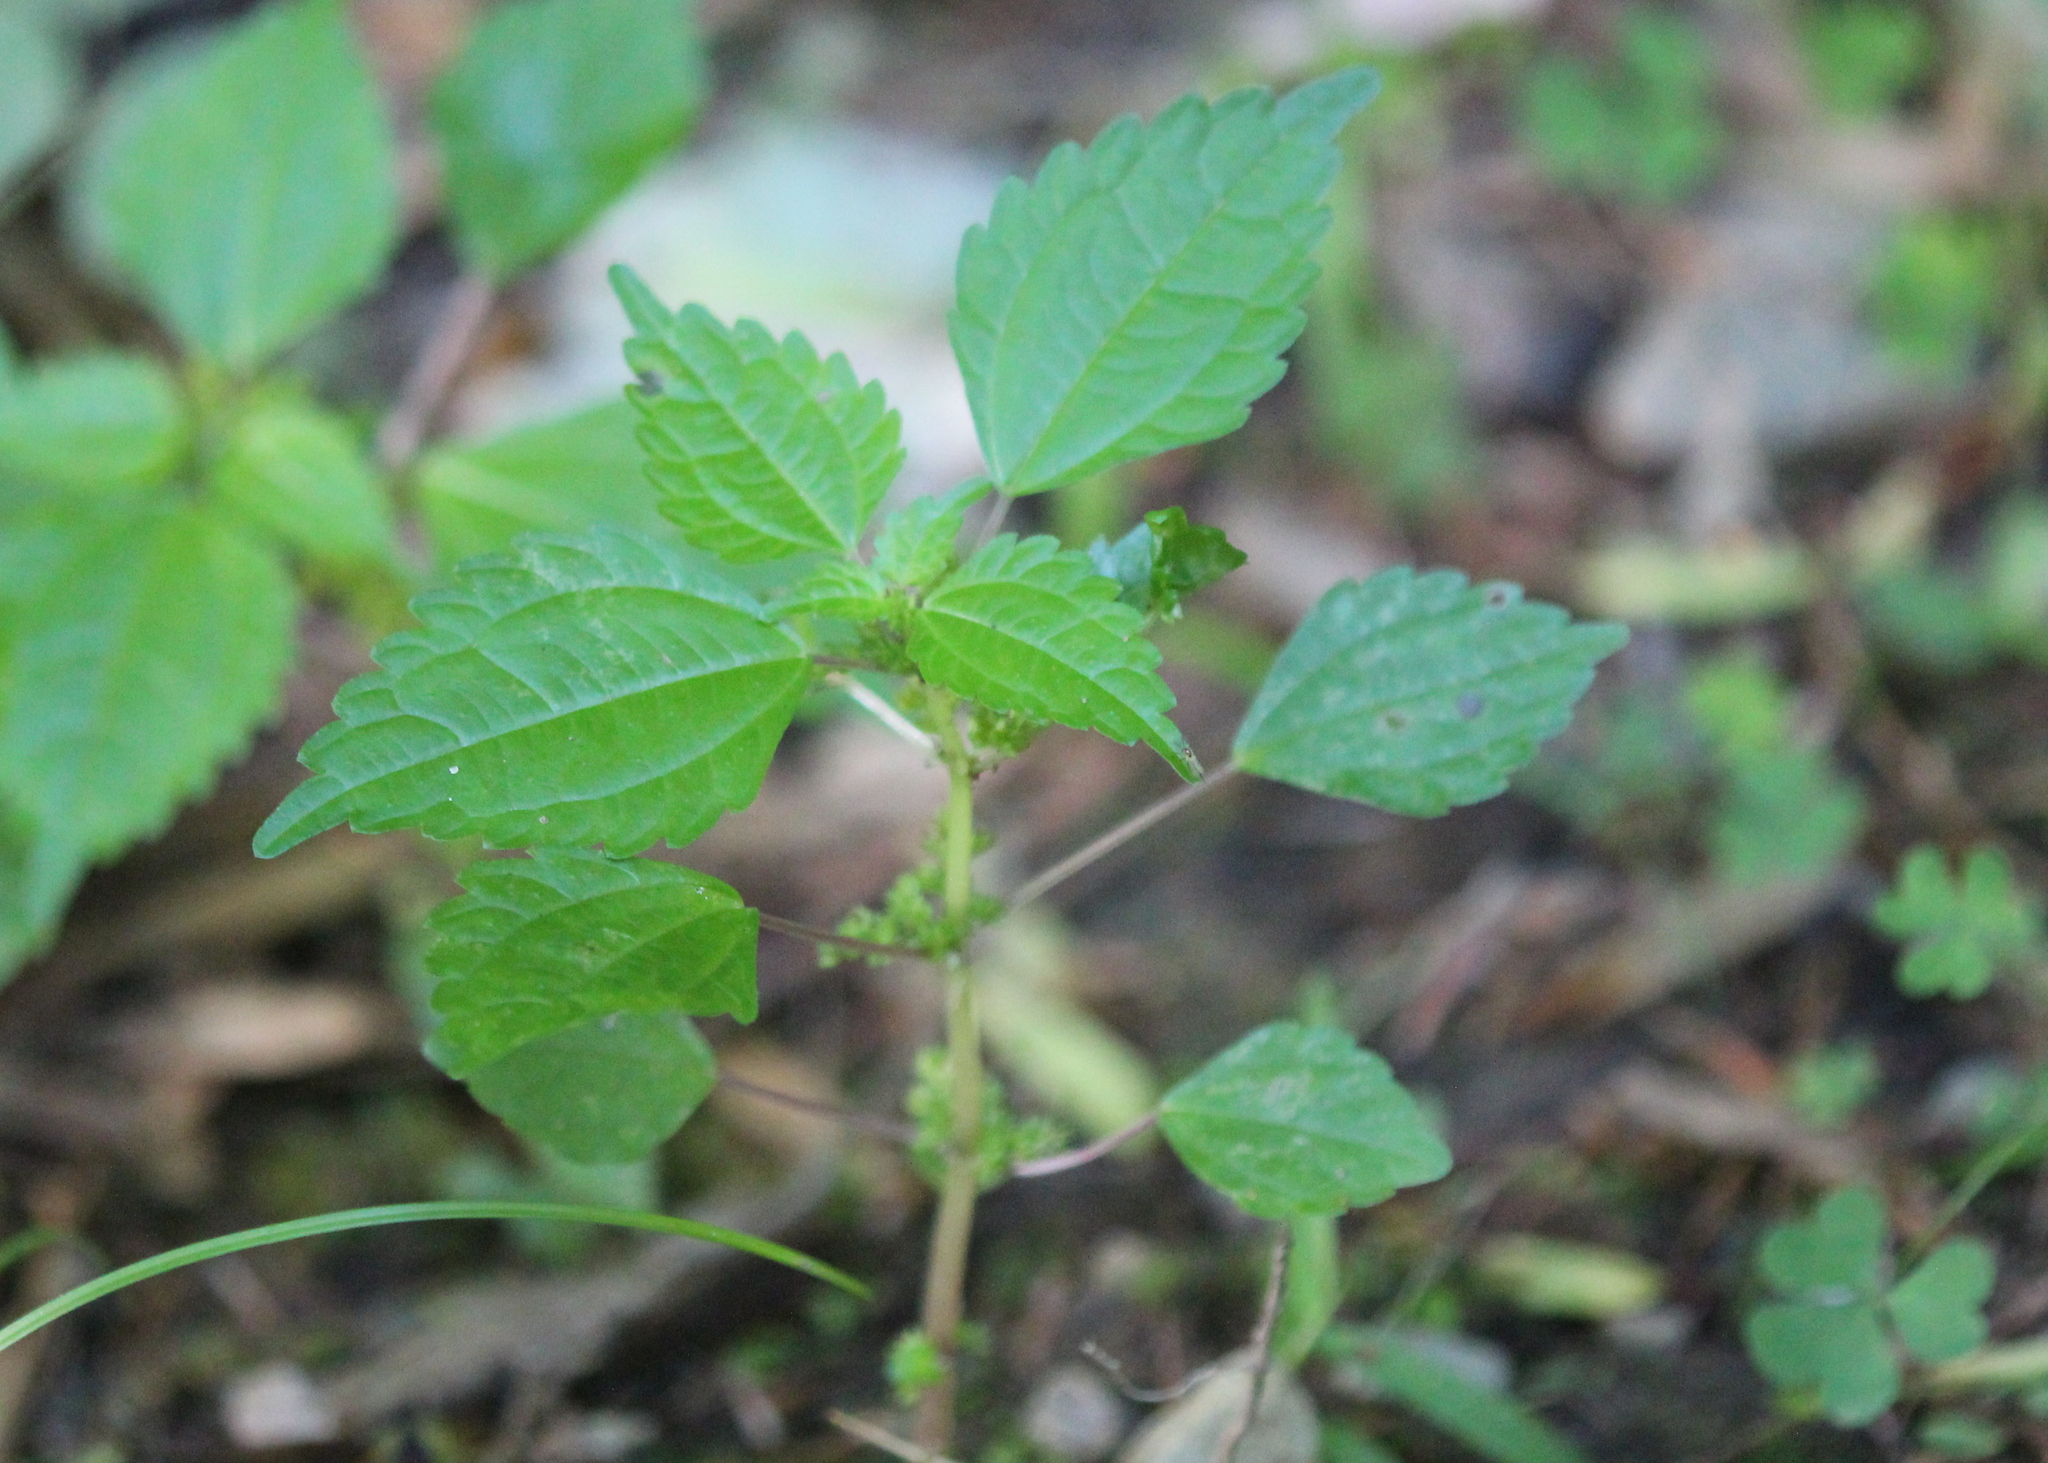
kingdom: Plantae
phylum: Tracheophyta
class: Magnoliopsida
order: Rosales
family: Urticaceae
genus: Pilea
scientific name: Pilea pumila
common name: Clearweed
